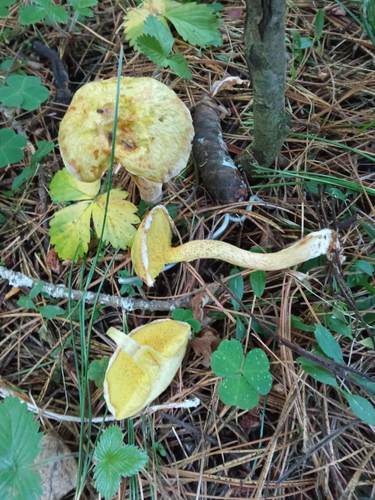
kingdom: Fungi
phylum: Basidiomycota
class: Agaricomycetes
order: Boletales
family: Suillaceae
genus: Suillus
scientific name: Suillus americanus
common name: Chicken fat mushroom
